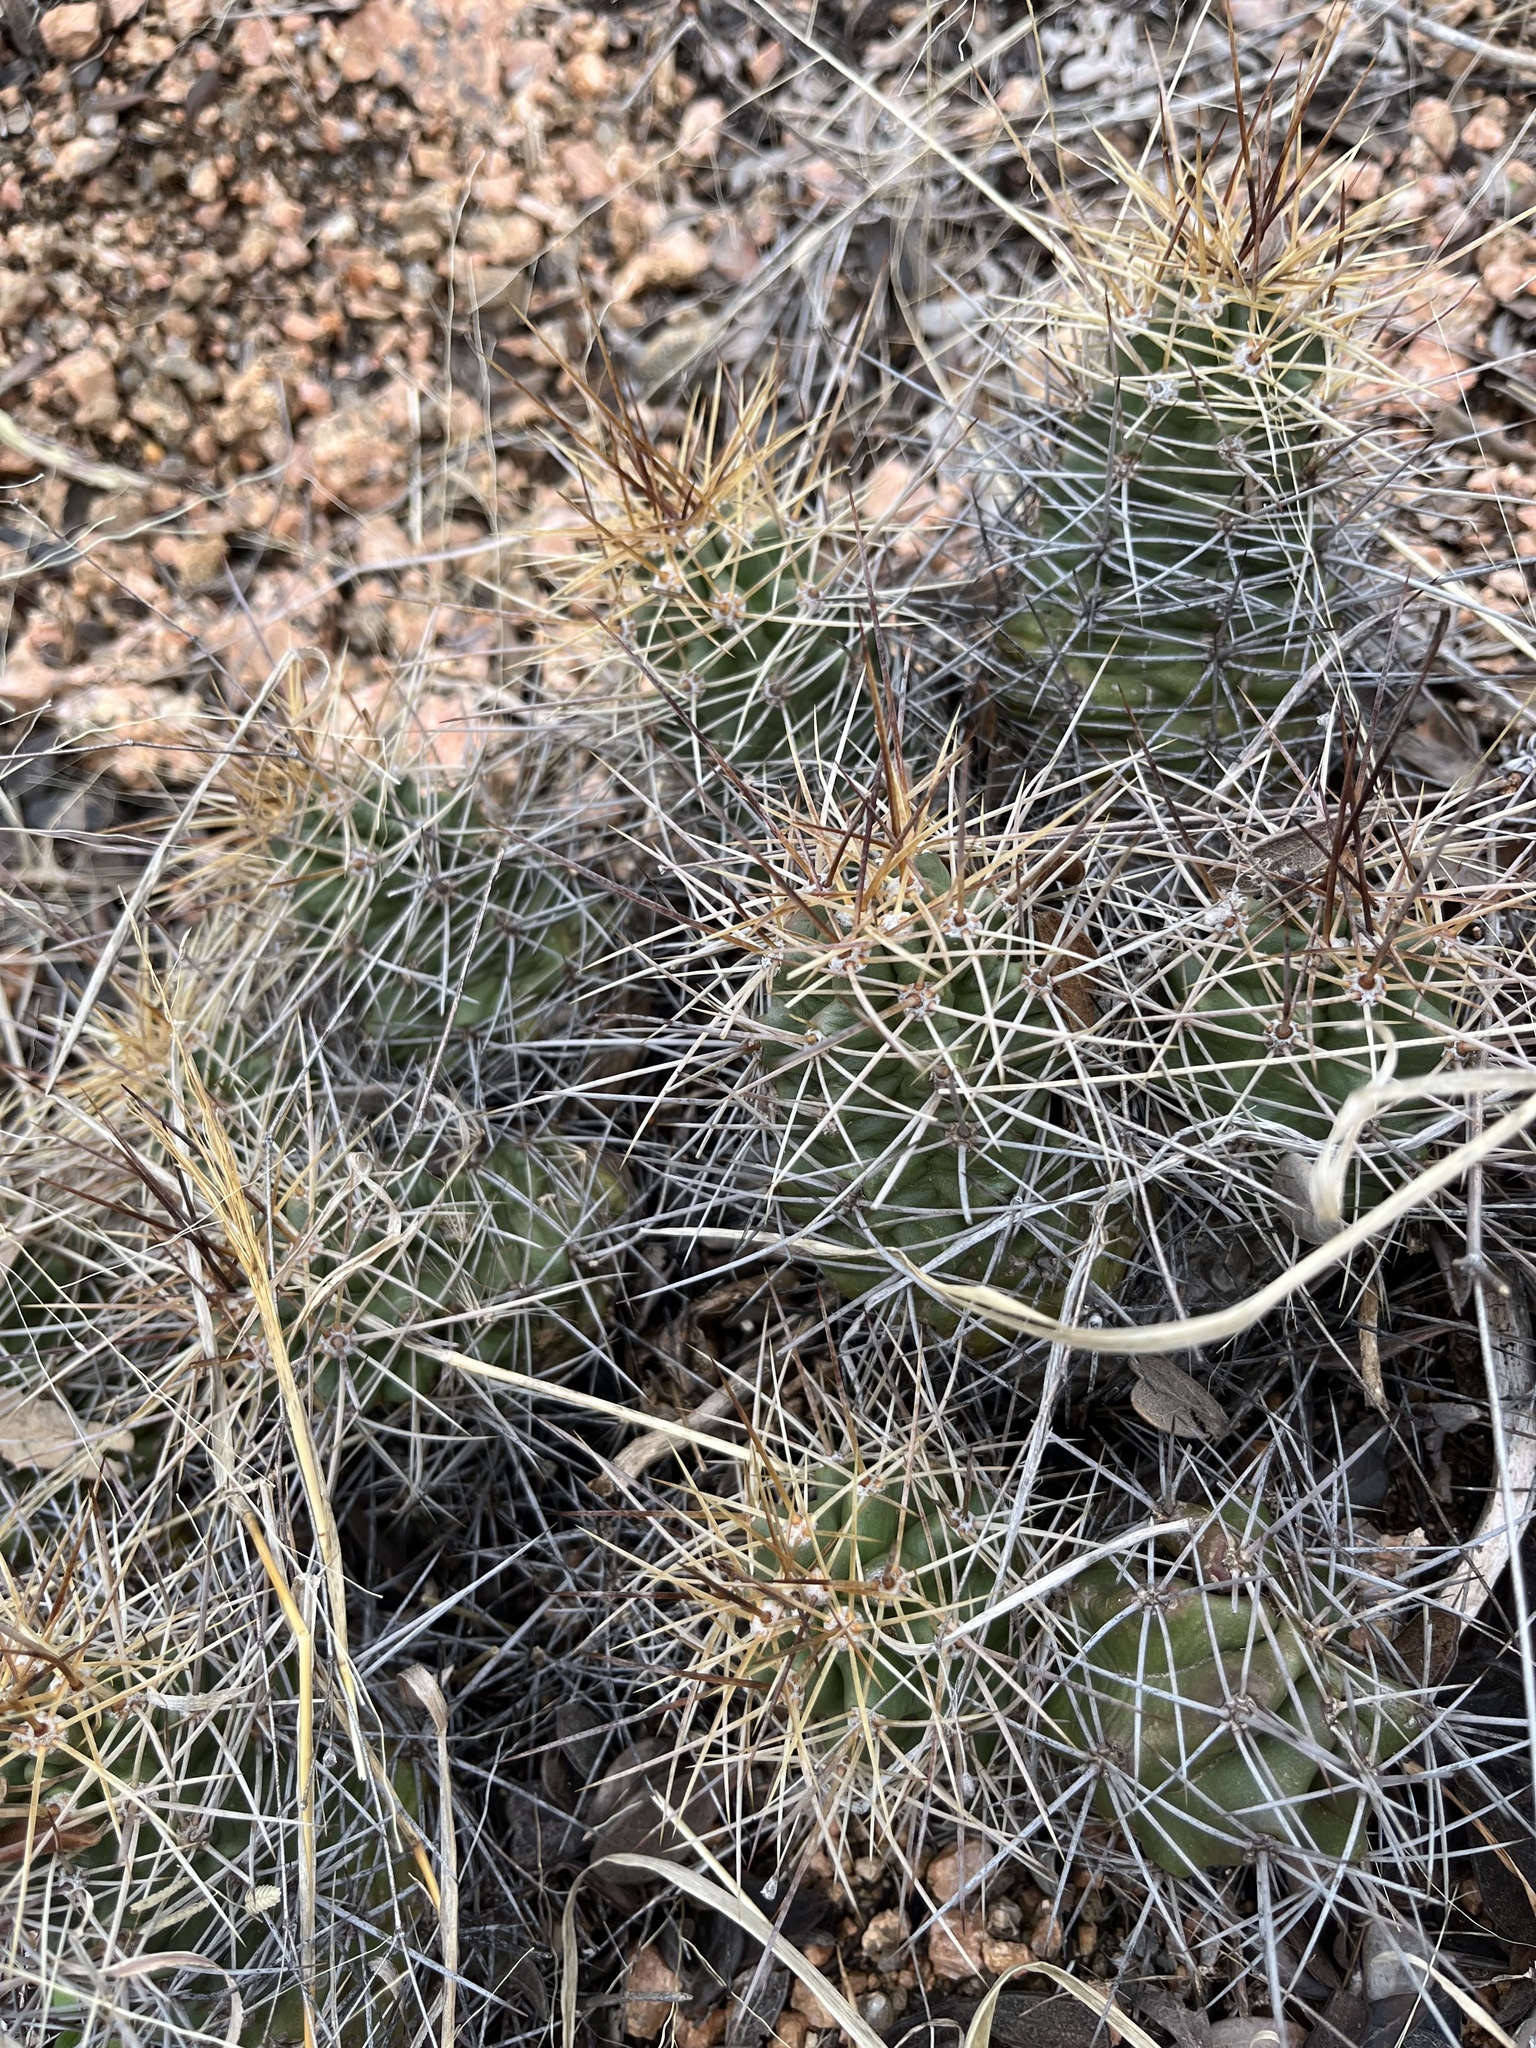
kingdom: Plantae
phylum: Tracheophyta
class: Magnoliopsida
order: Caryophyllales
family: Cactaceae
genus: Echinocereus
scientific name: Echinocereus coccineus
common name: Scarlet hedgehog cactus
